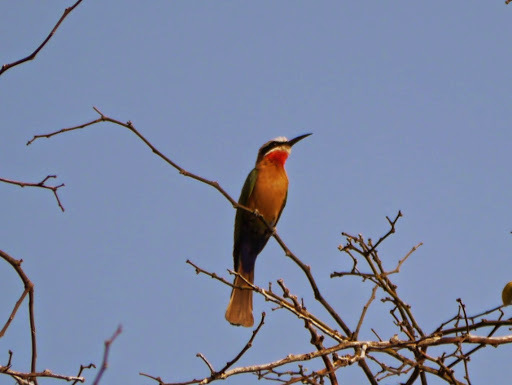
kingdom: Animalia
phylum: Chordata
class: Aves
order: Coraciiformes
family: Meropidae
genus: Merops
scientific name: Merops bullockoides
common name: White-fronted bee-eater
